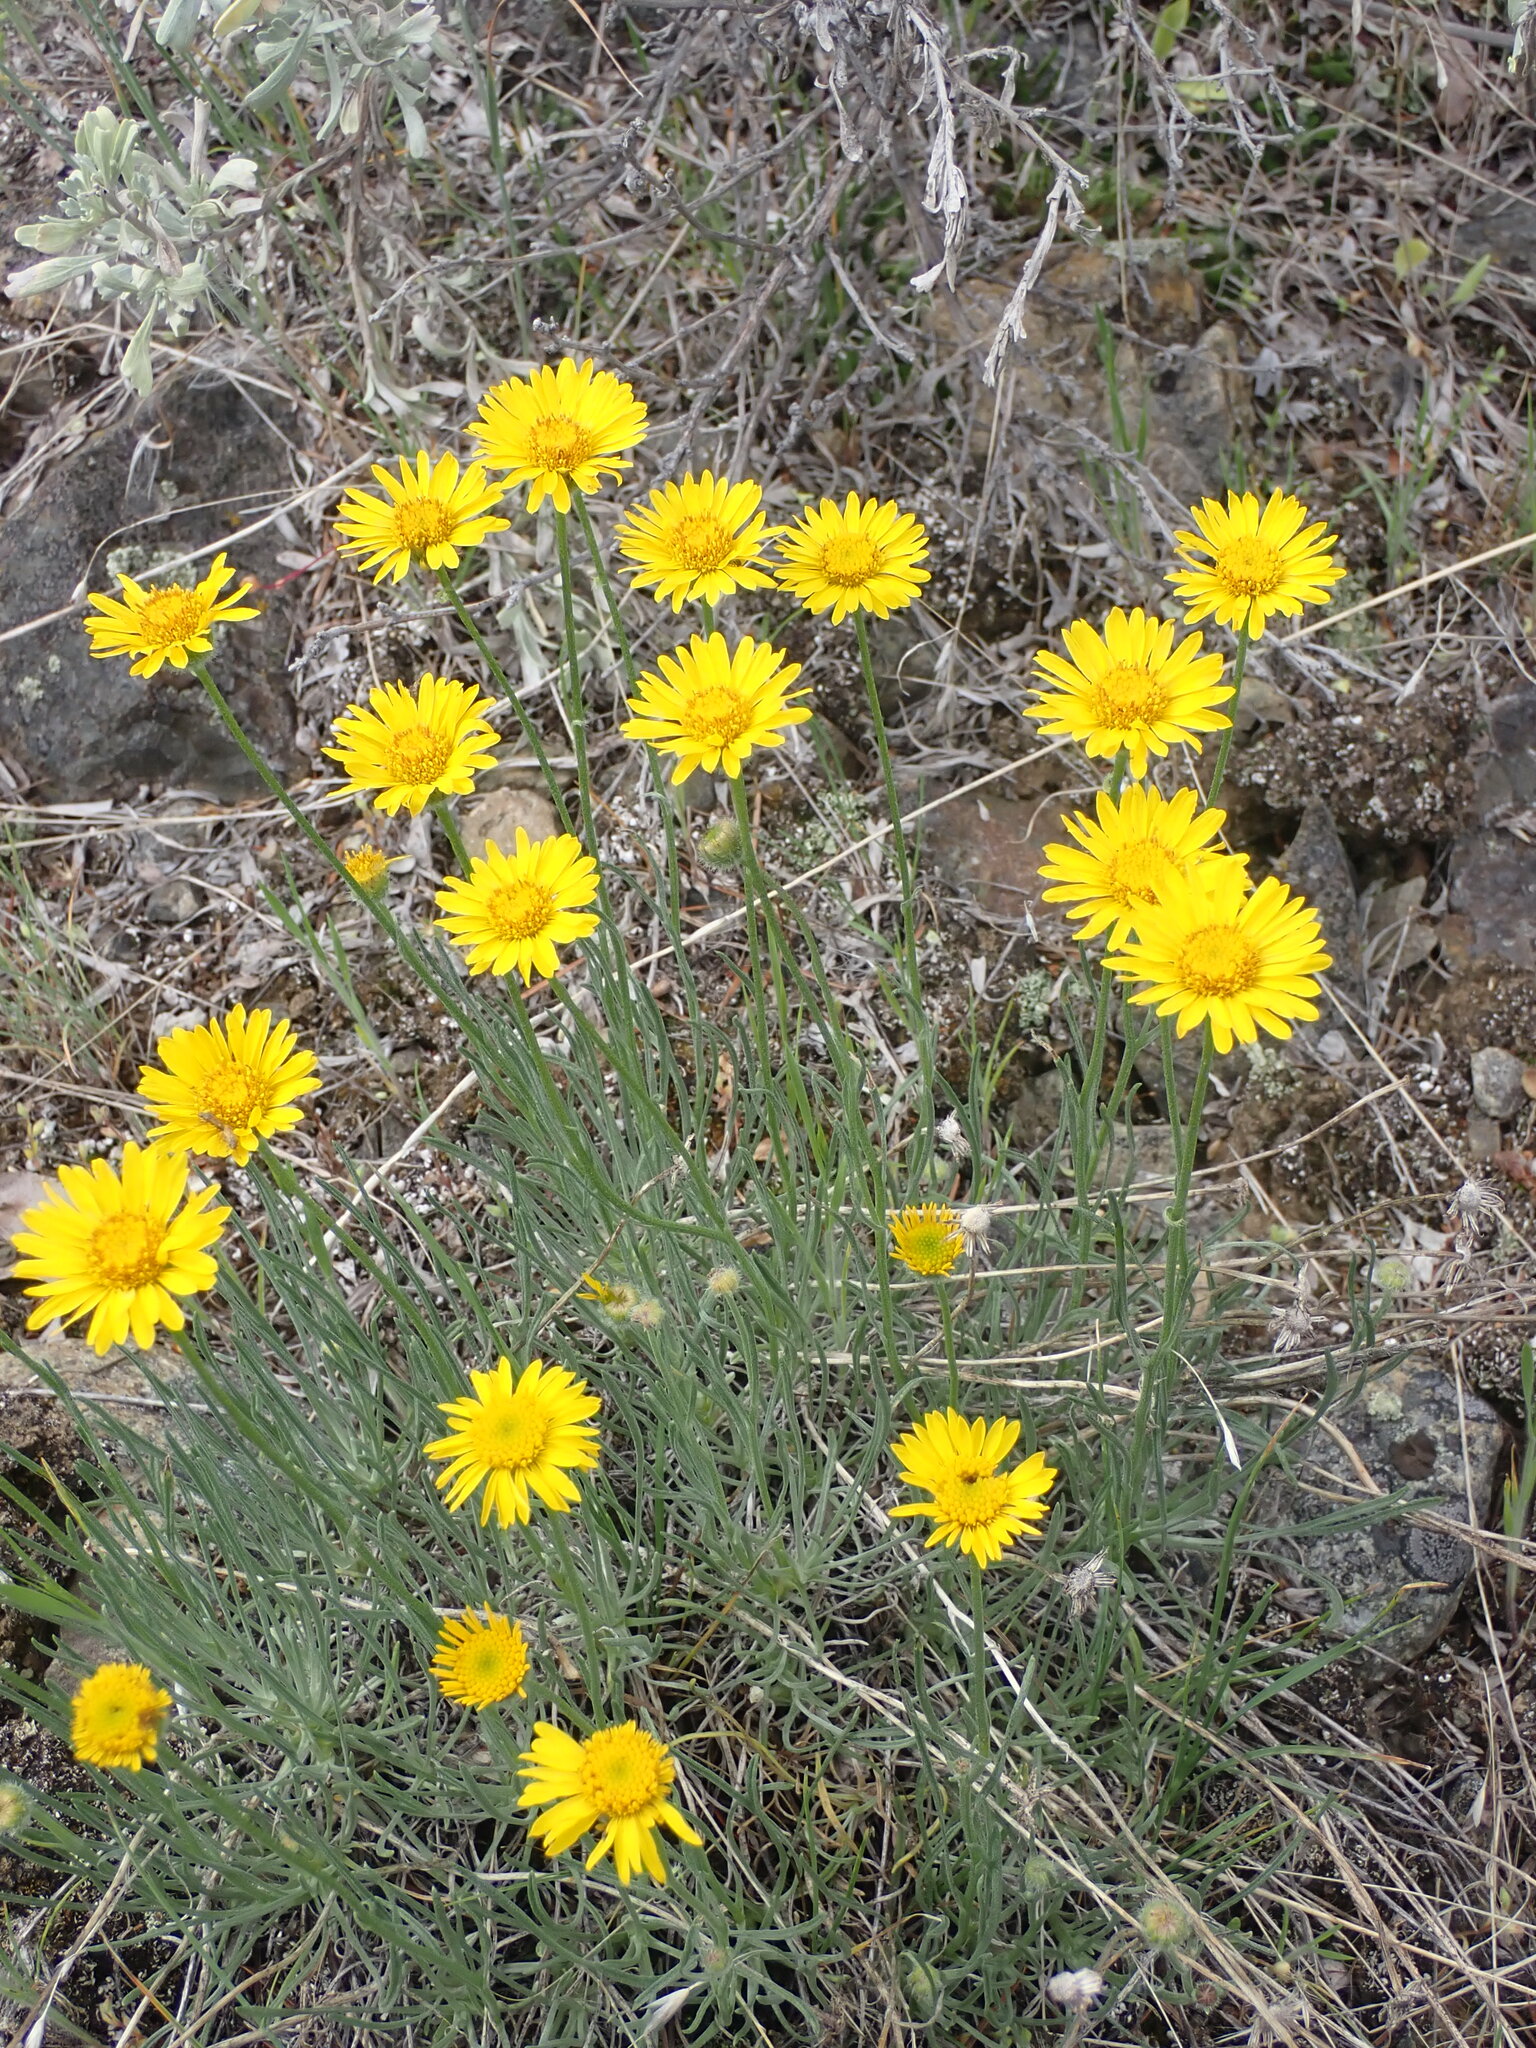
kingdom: Plantae
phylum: Tracheophyta
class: Magnoliopsida
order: Asterales
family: Asteraceae
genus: Erigeron
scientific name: Erigeron linearis
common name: Desert yellow fleabane
